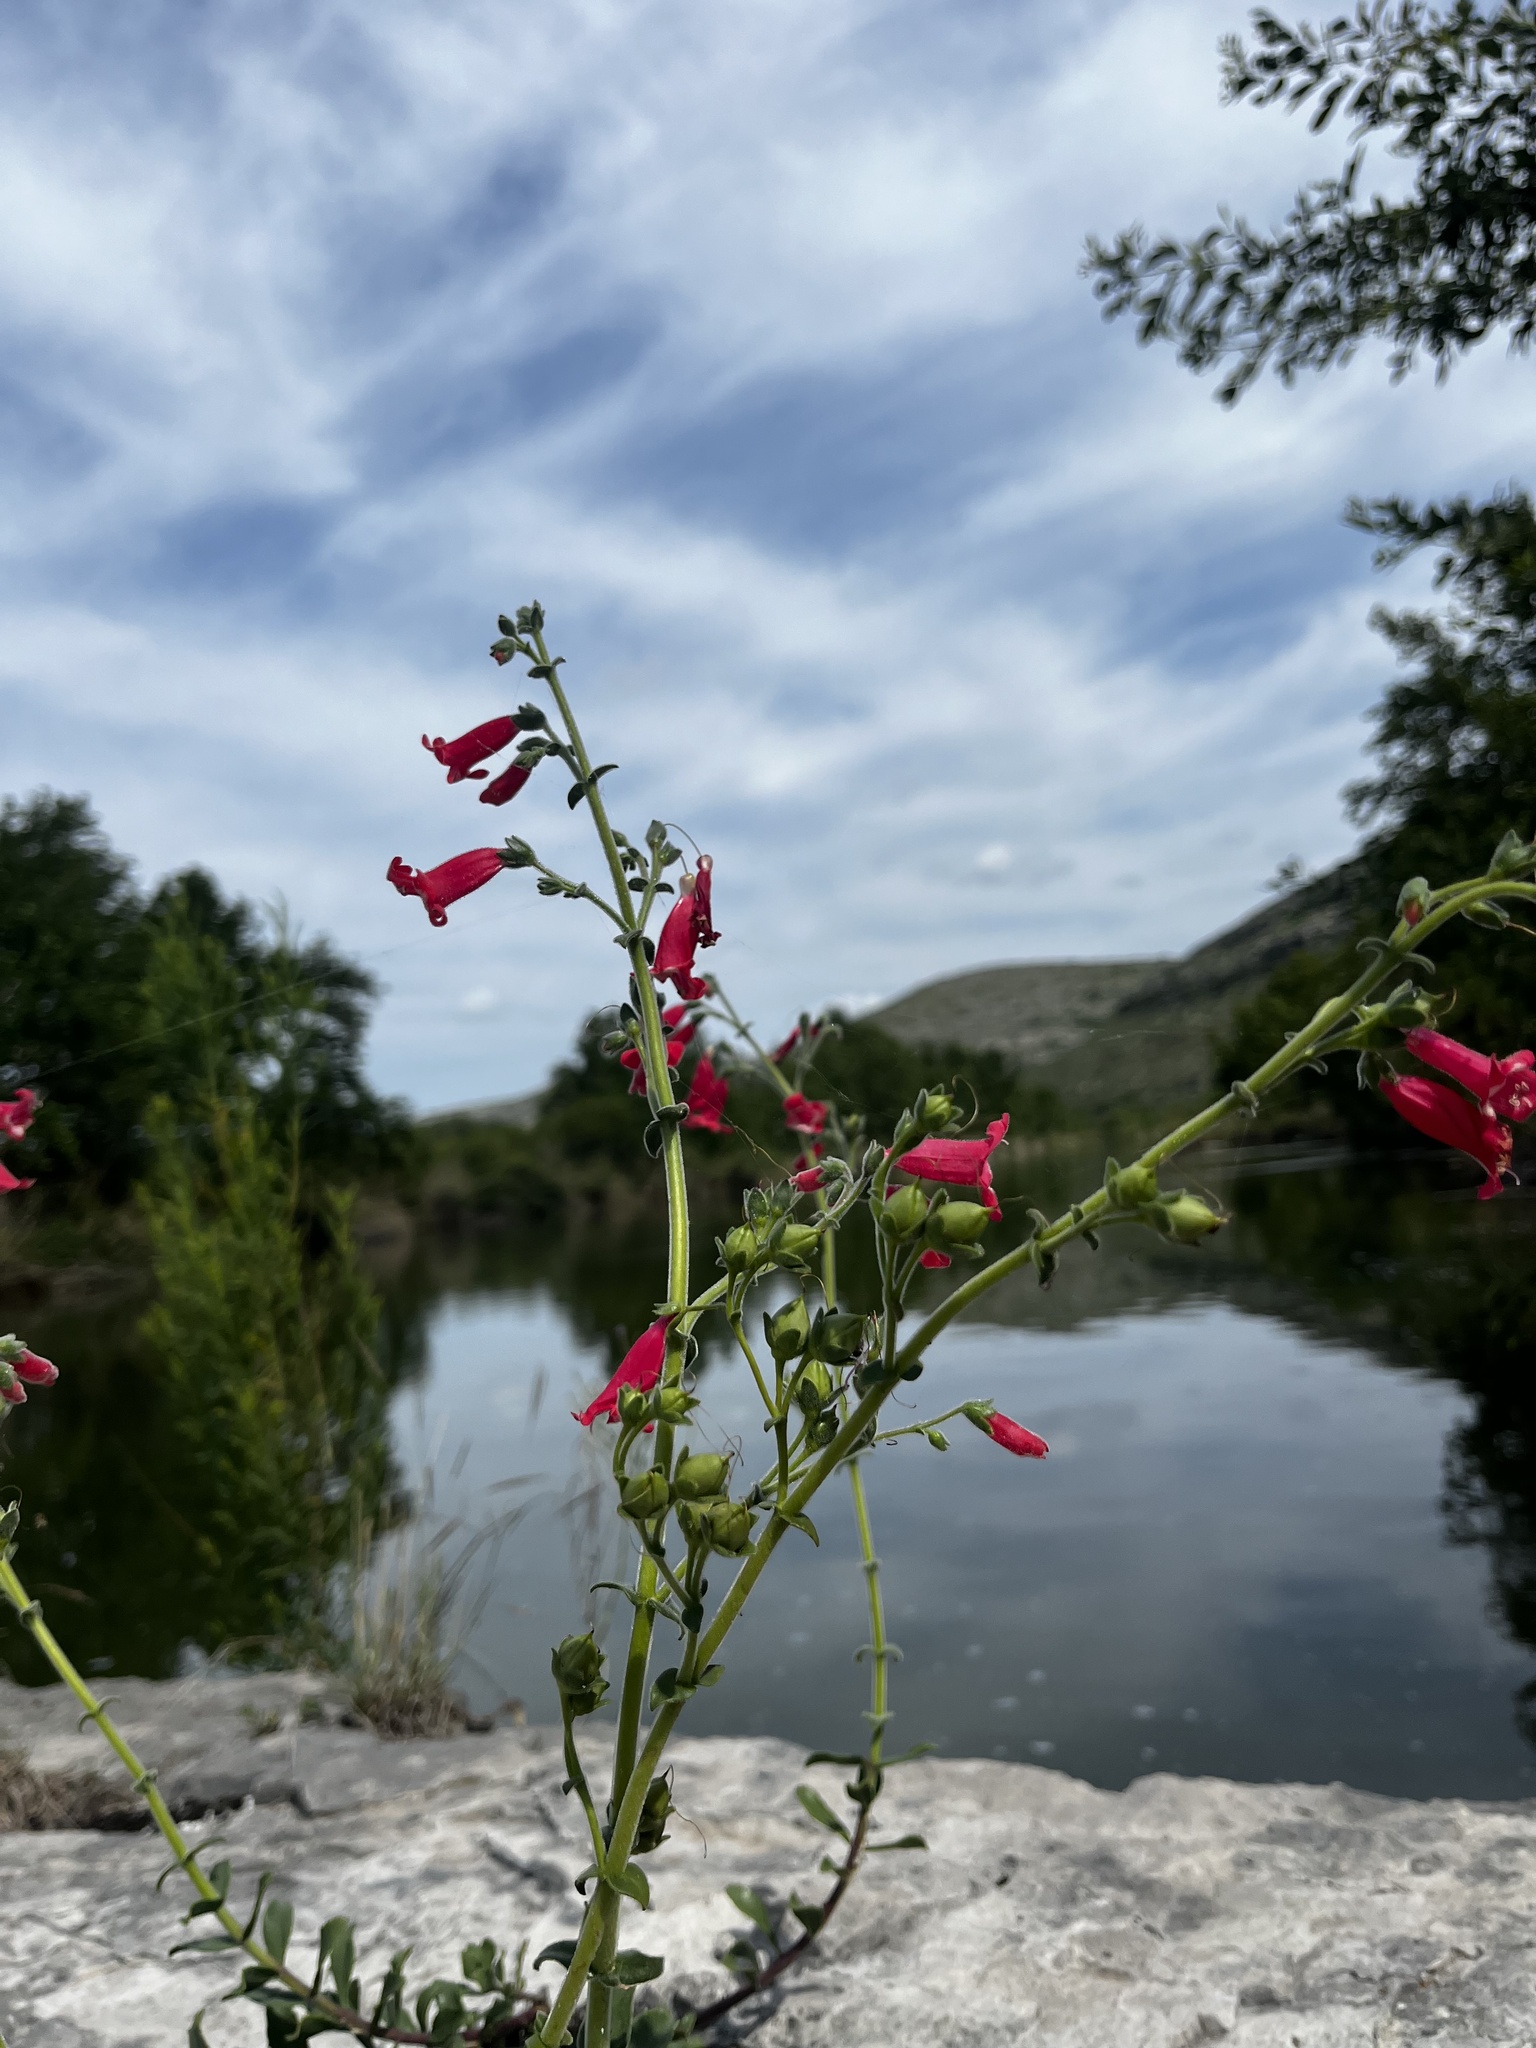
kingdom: Plantae
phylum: Tracheophyta
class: Magnoliopsida
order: Lamiales
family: Plantaginaceae
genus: Penstemon
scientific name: Penstemon baccharifolius
